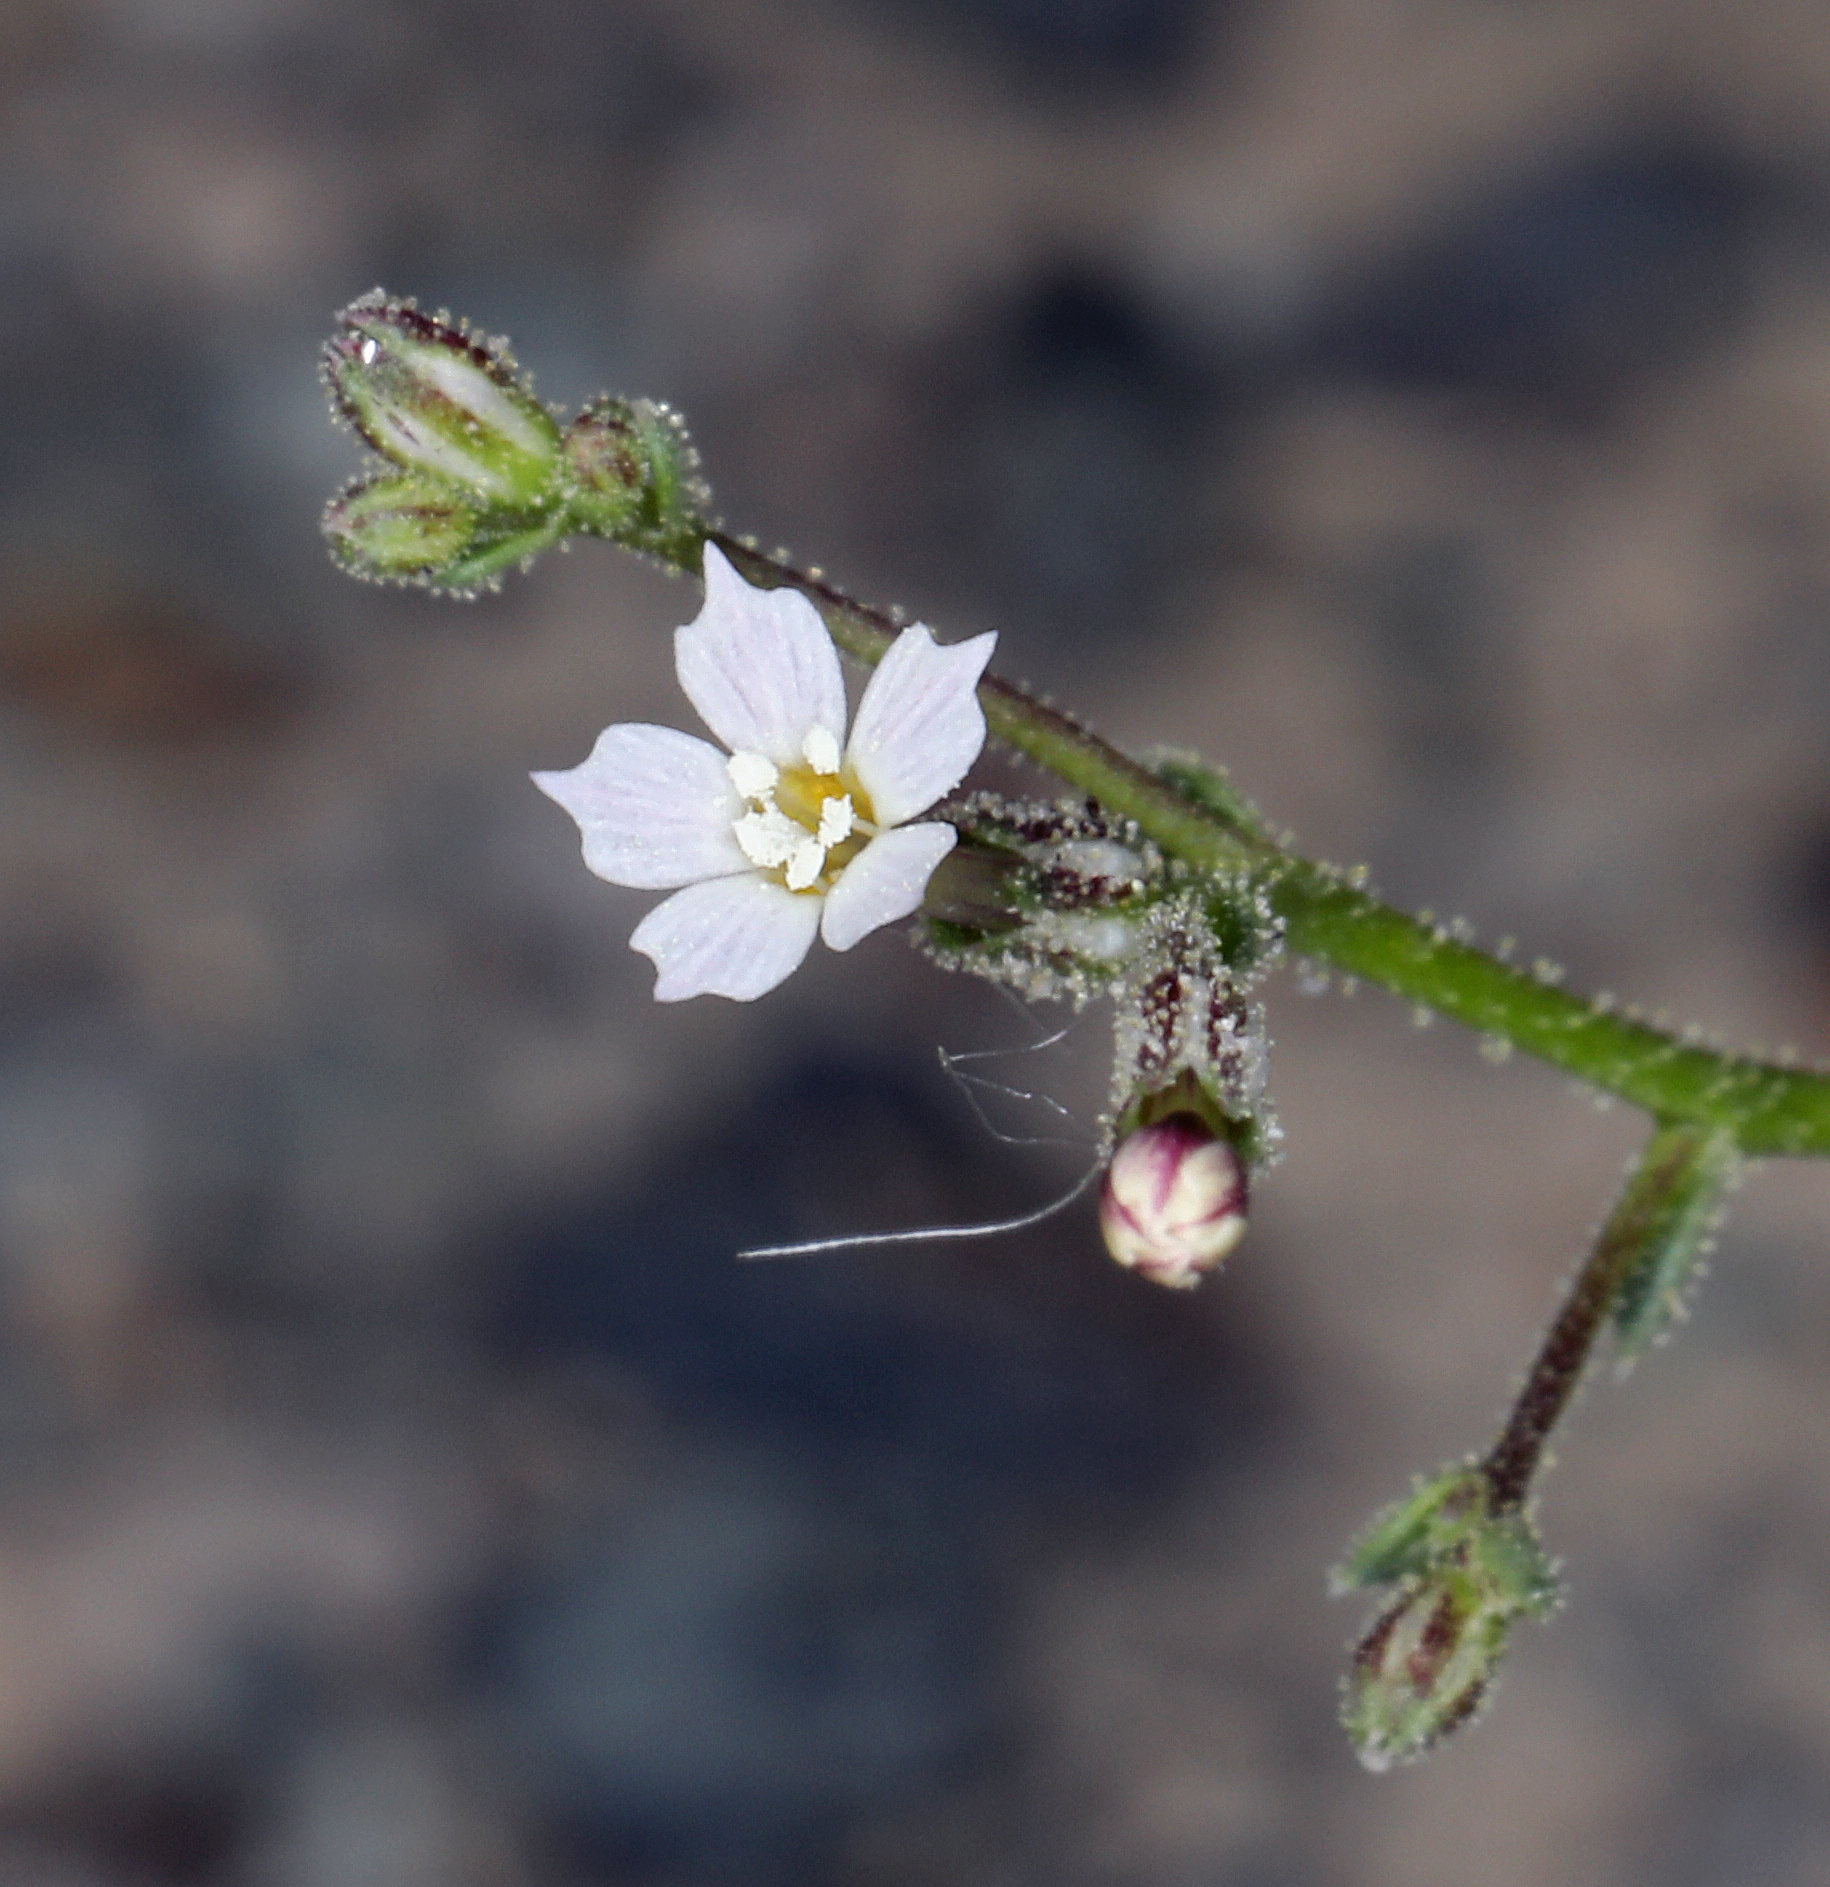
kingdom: Plantae
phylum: Tracheophyta
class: Magnoliopsida
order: Ericales
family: Polemoniaceae
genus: Aliciella
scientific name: Aliciella leptomeria
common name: Sand gilia
